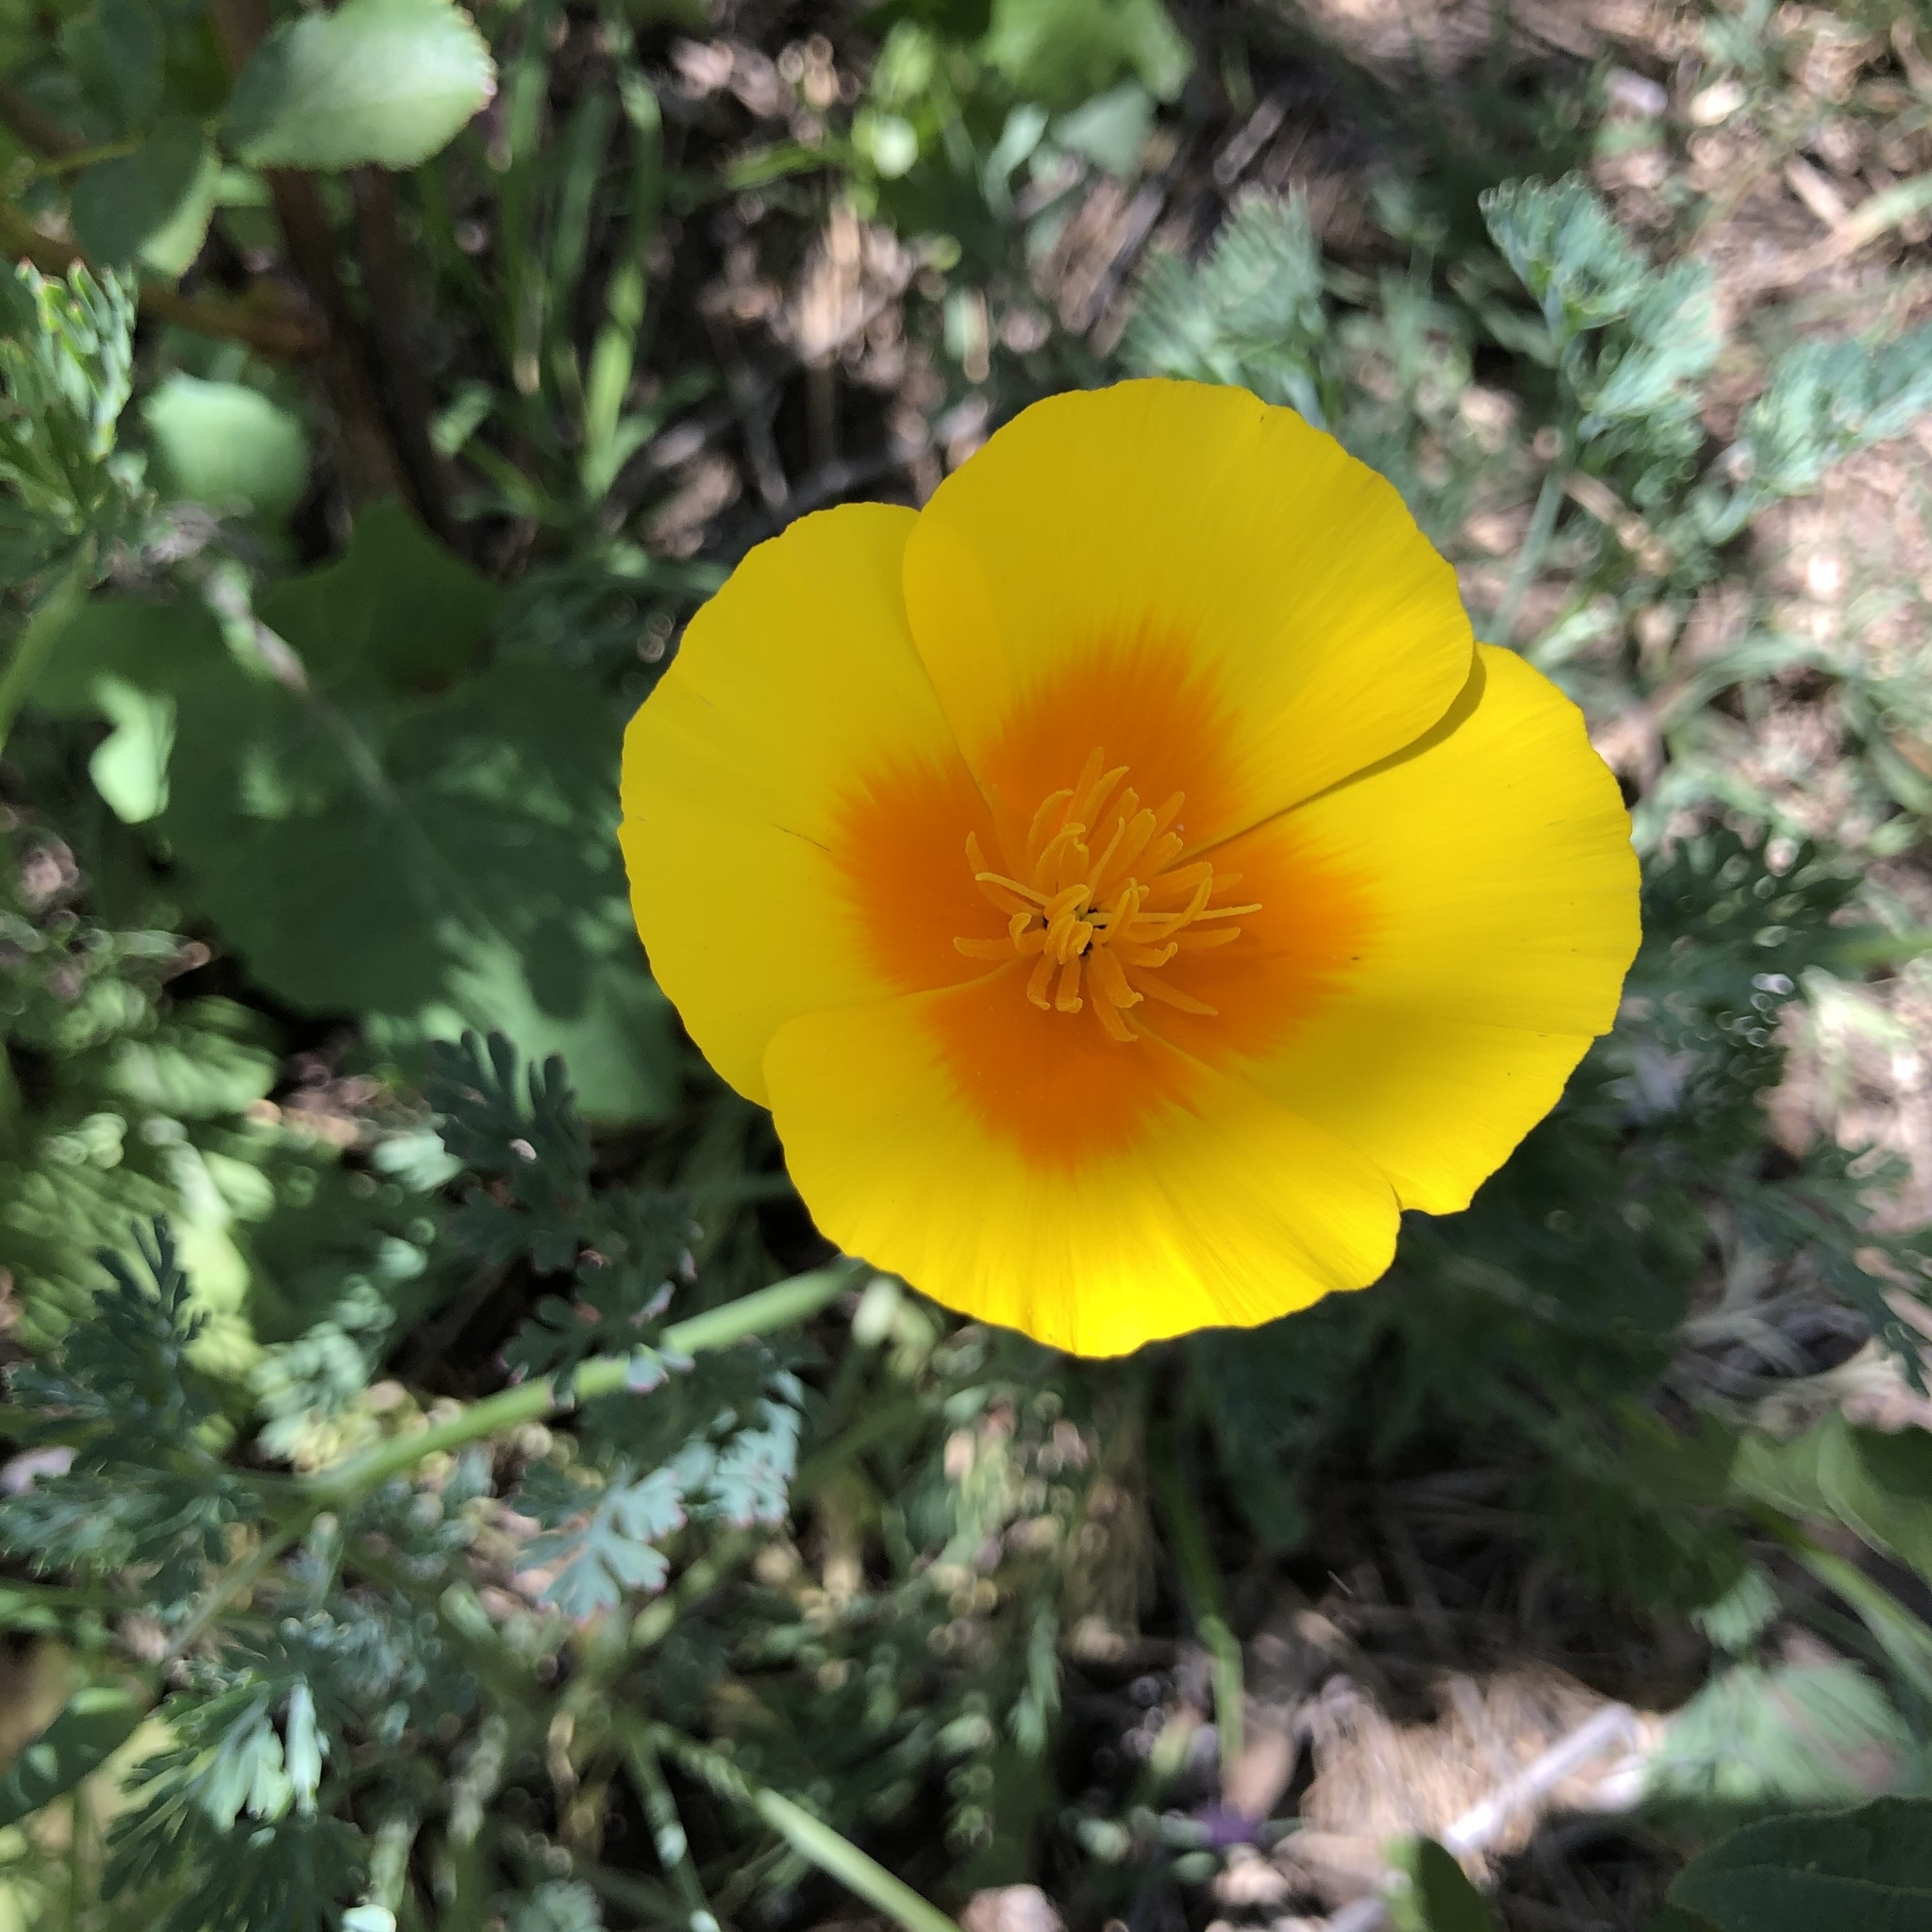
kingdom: Plantae
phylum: Tracheophyta
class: Magnoliopsida
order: Ranunculales
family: Papaveraceae
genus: Eschscholzia
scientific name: Eschscholzia californica
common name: California poppy
